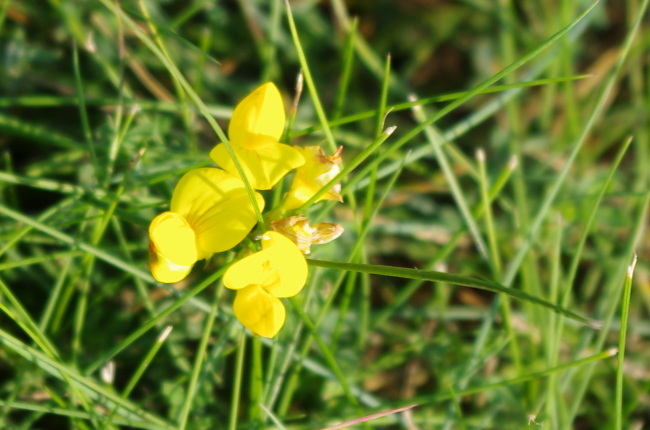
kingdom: Plantae
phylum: Tracheophyta
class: Magnoliopsida
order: Fabales
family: Fabaceae
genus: Lotus
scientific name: Lotus corniculatus
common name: Common bird's-foot-trefoil
